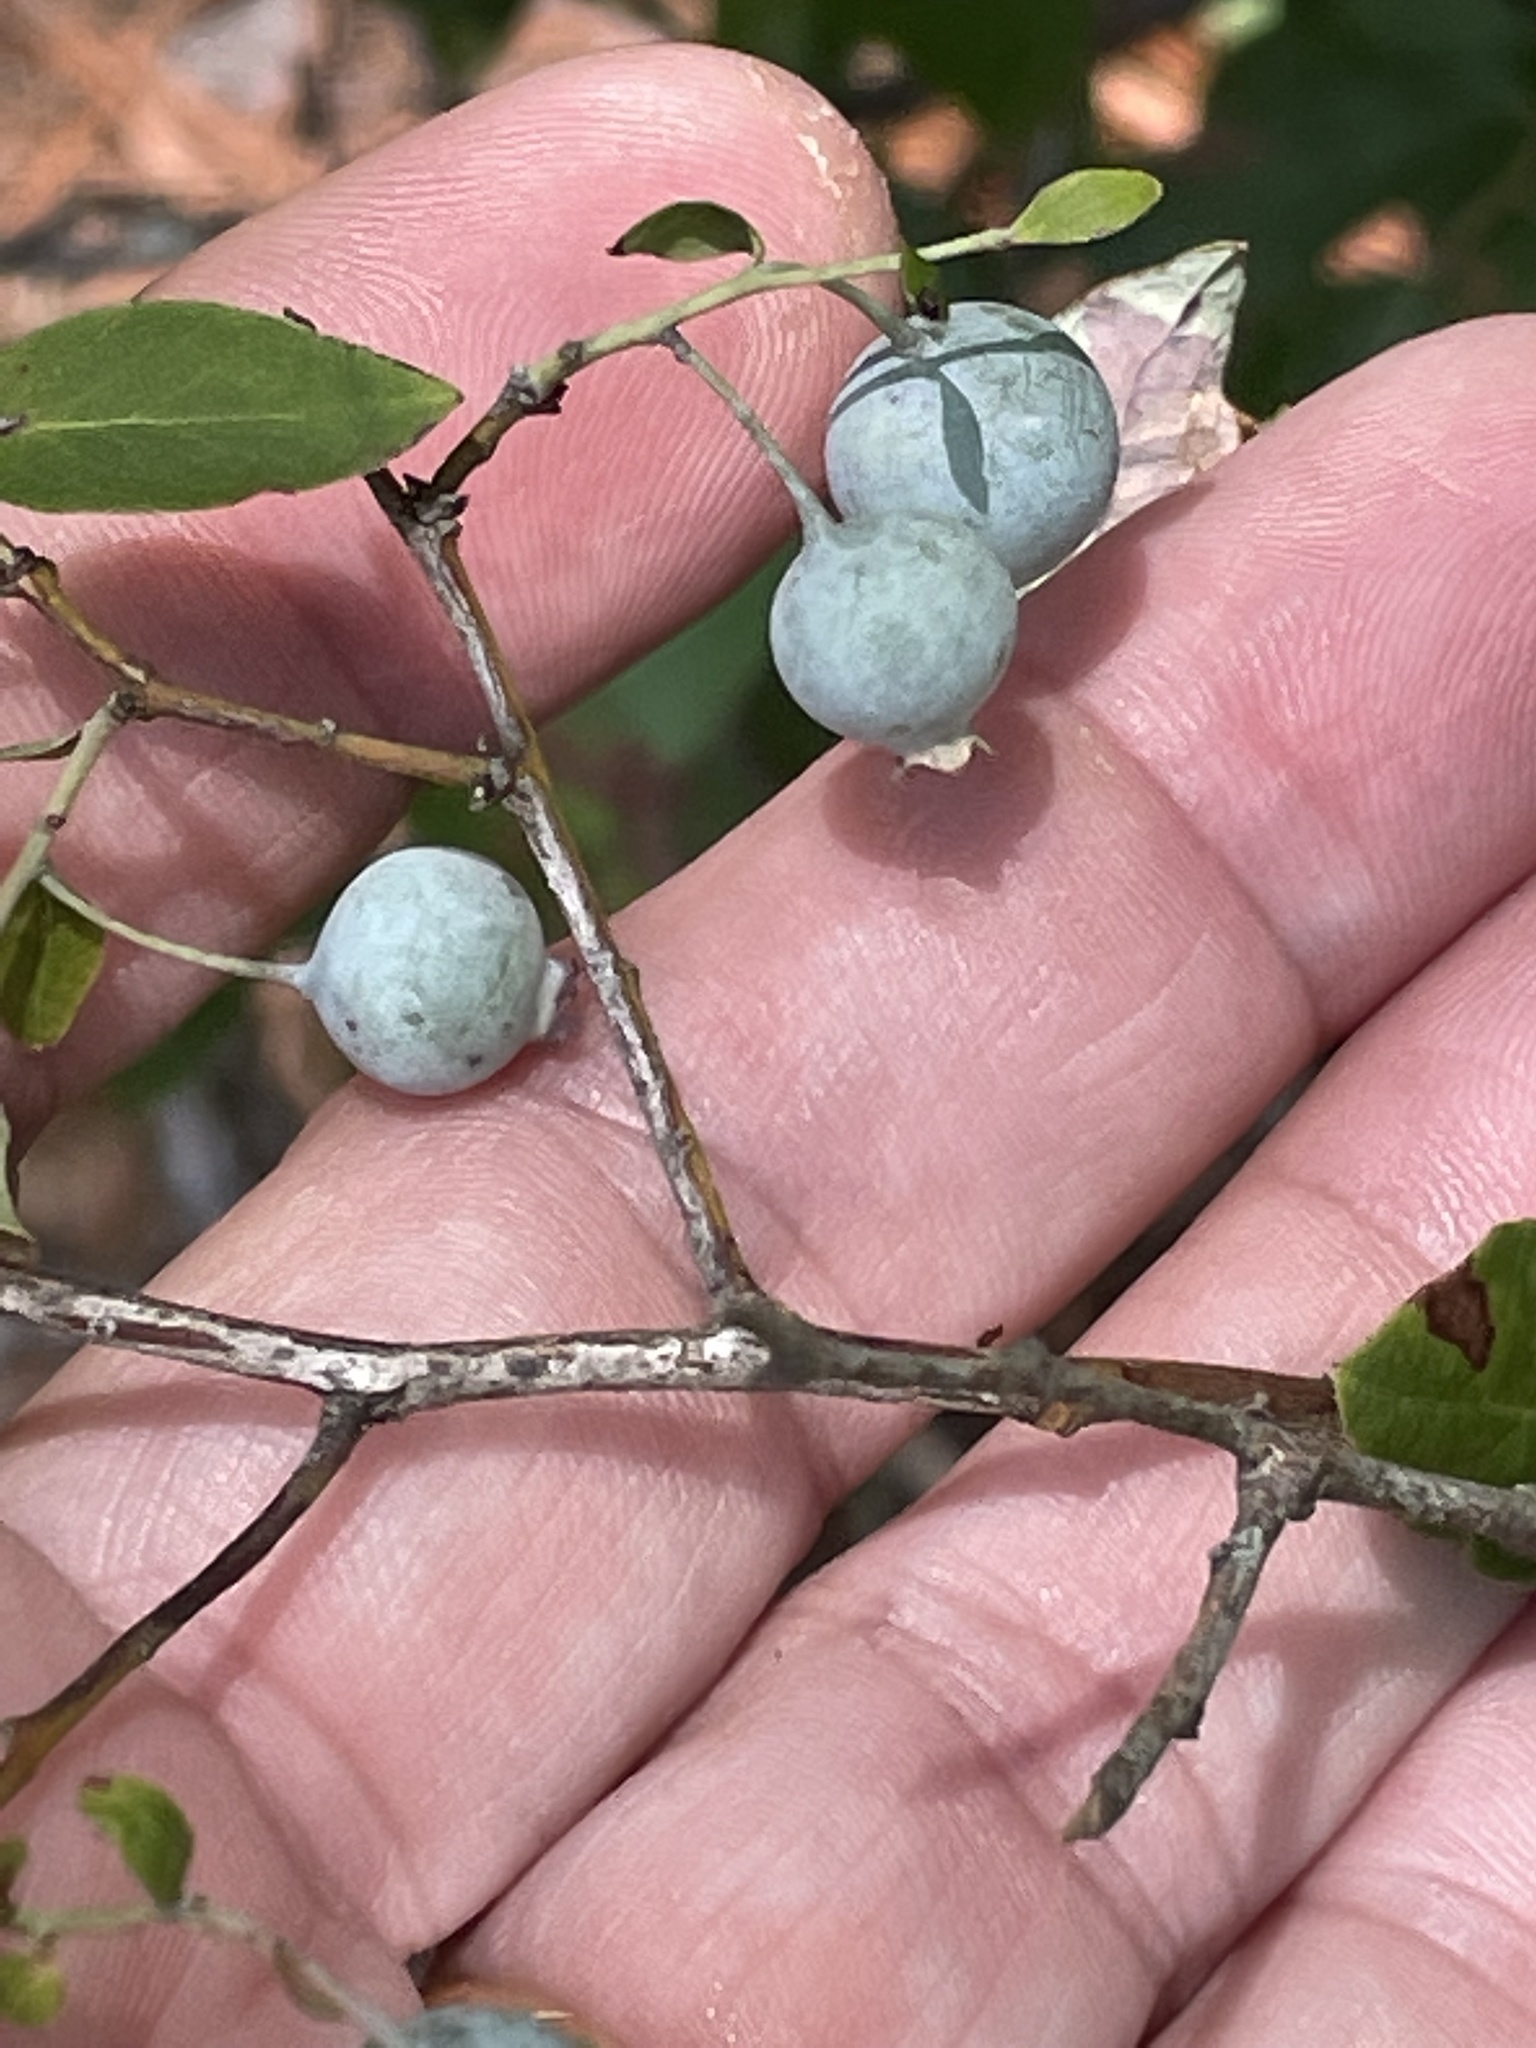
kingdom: Plantae
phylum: Tracheophyta
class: Magnoliopsida
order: Ericales
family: Ericaceae
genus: Vaccinium
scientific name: Vaccinium stamineum
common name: Deerberry
